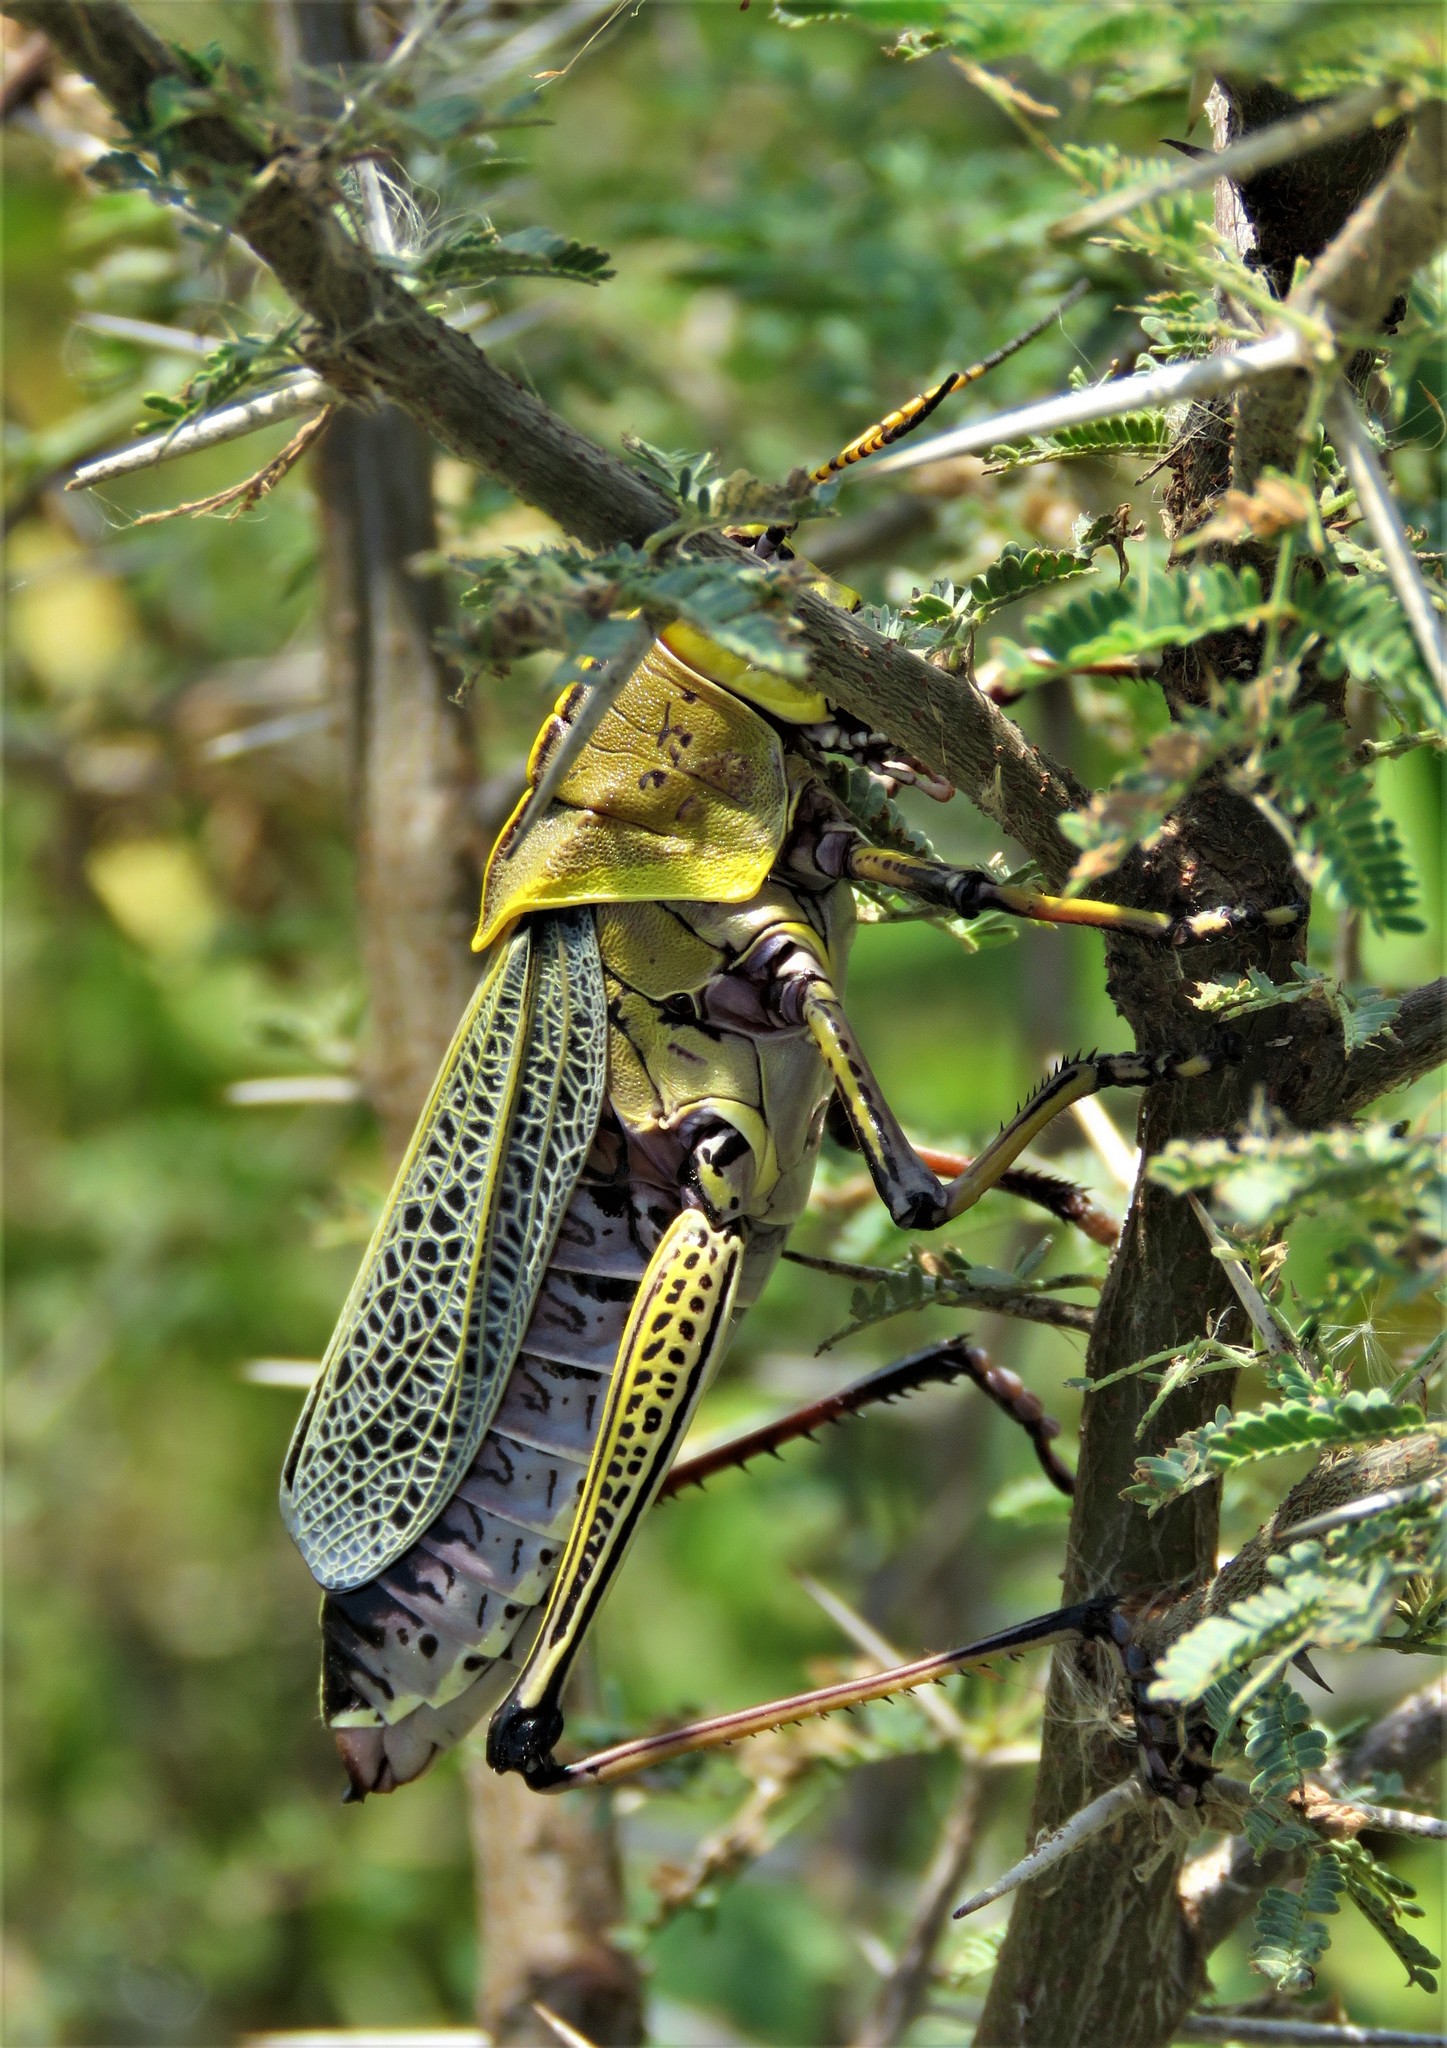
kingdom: Animalia
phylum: Arthropoda
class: Insecta
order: Orthoptera
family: Romaleidae
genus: Romalea
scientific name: Romalea
